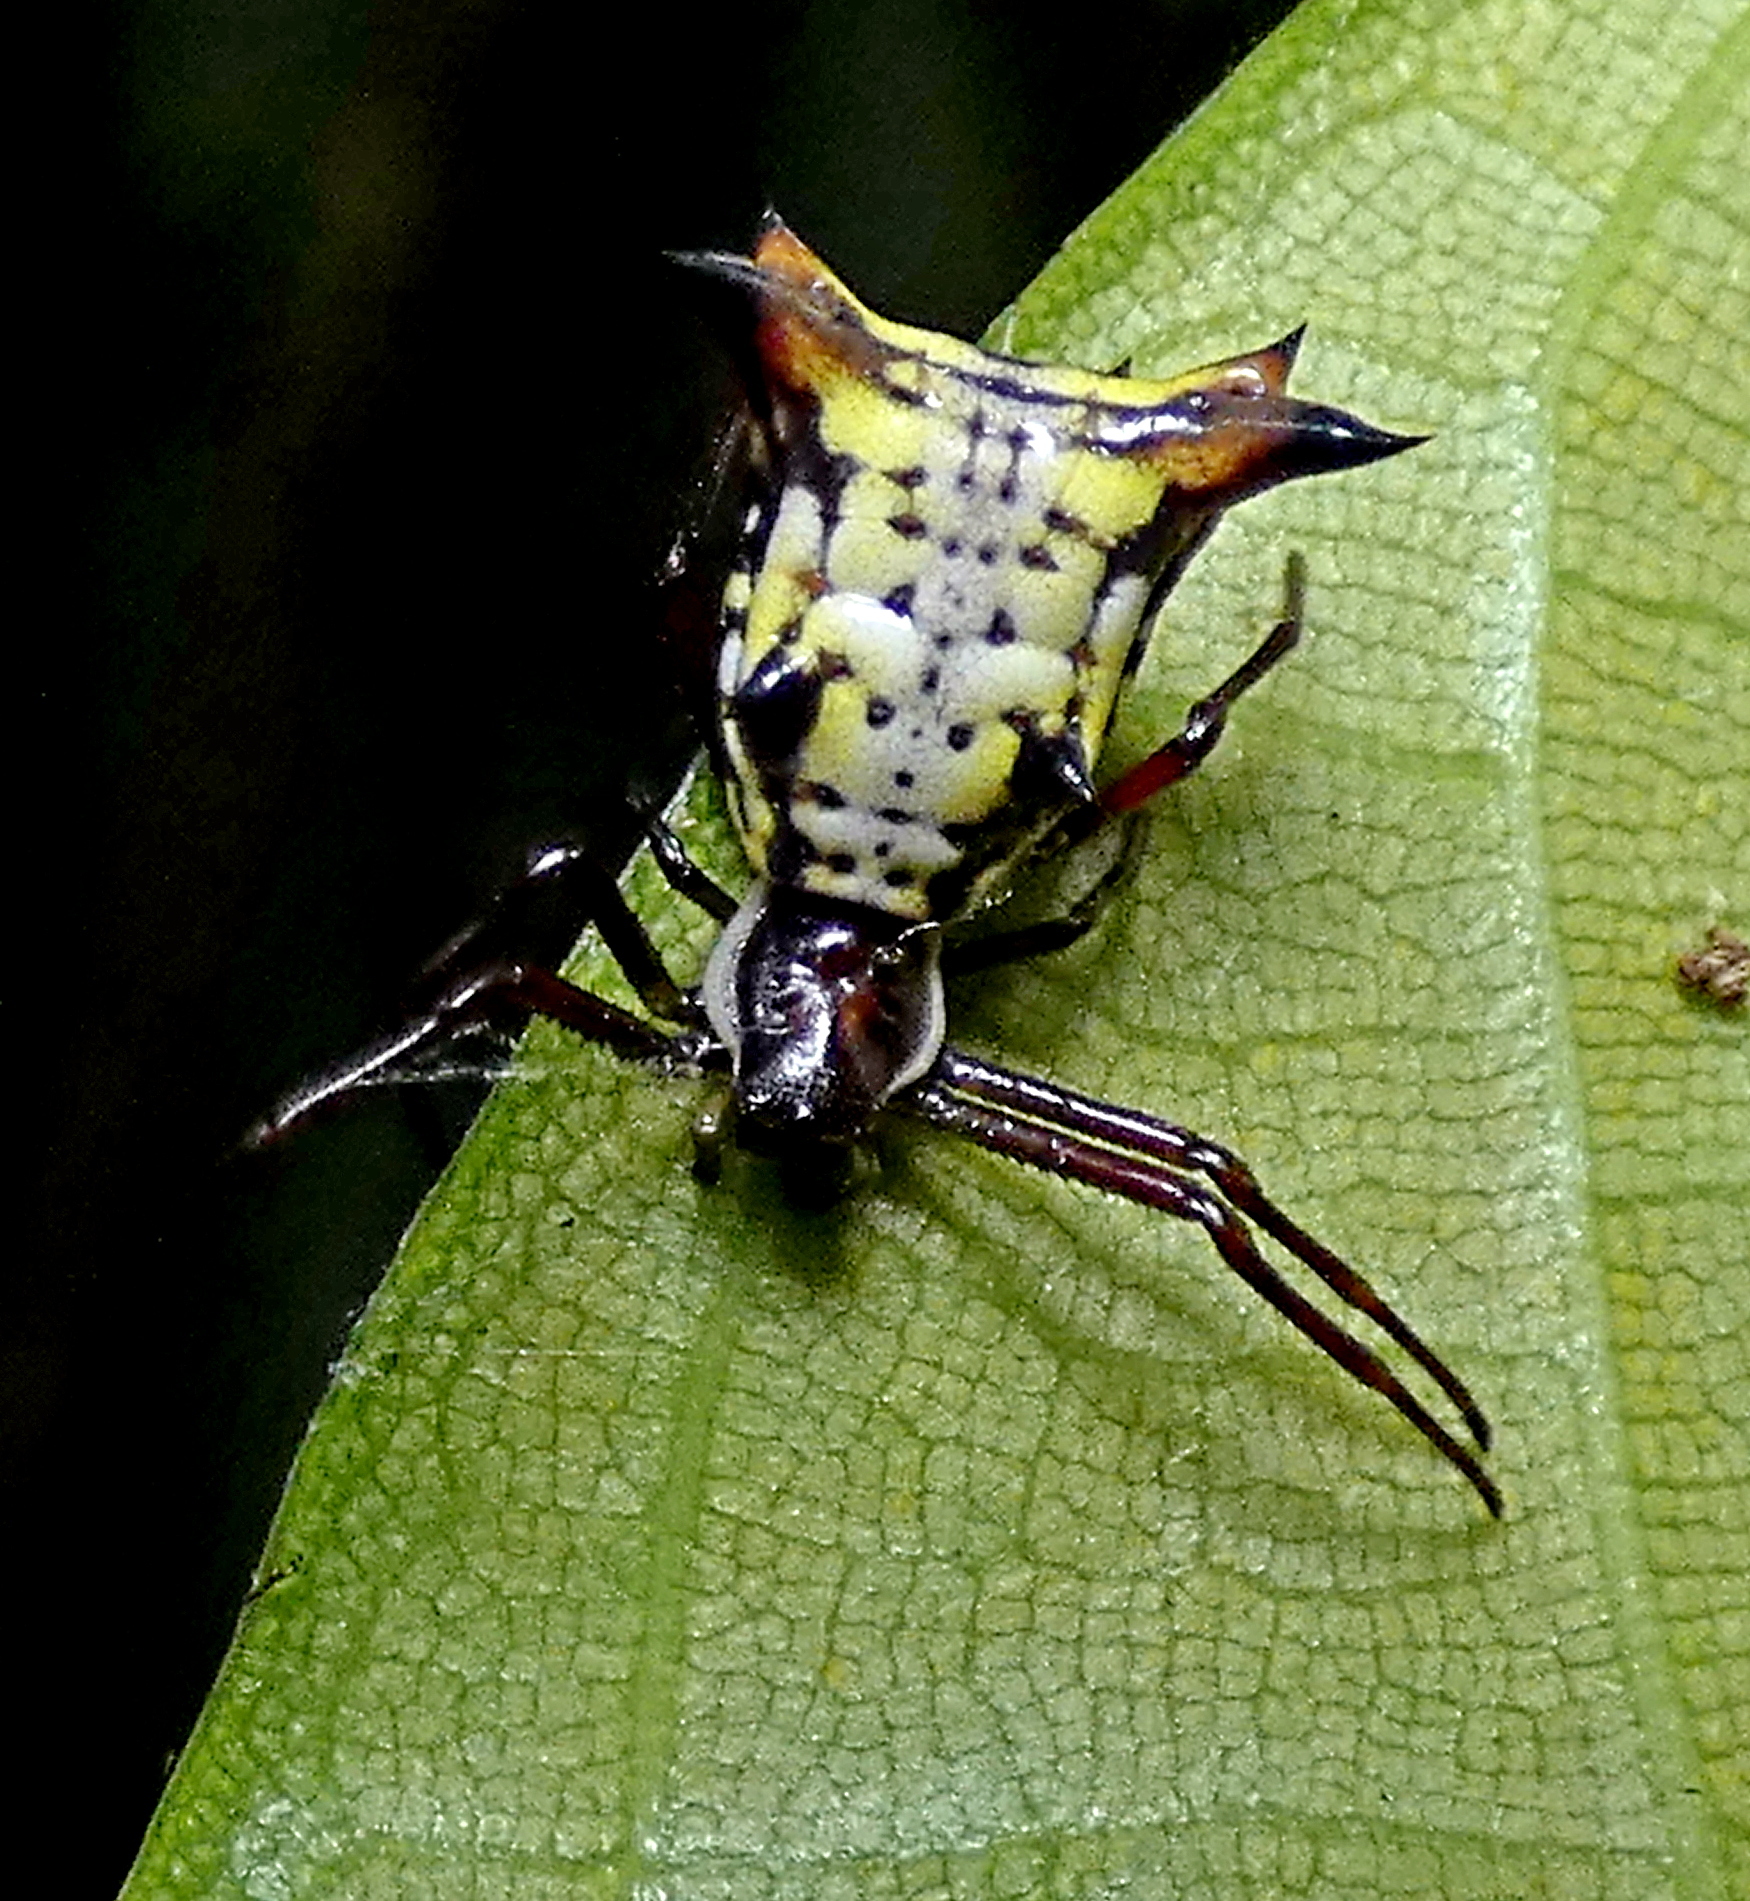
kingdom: Animalia
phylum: Arthropoda
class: Arachnida
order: Araneae
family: Araneidae
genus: Micrathena
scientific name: Micrathena fissispina
